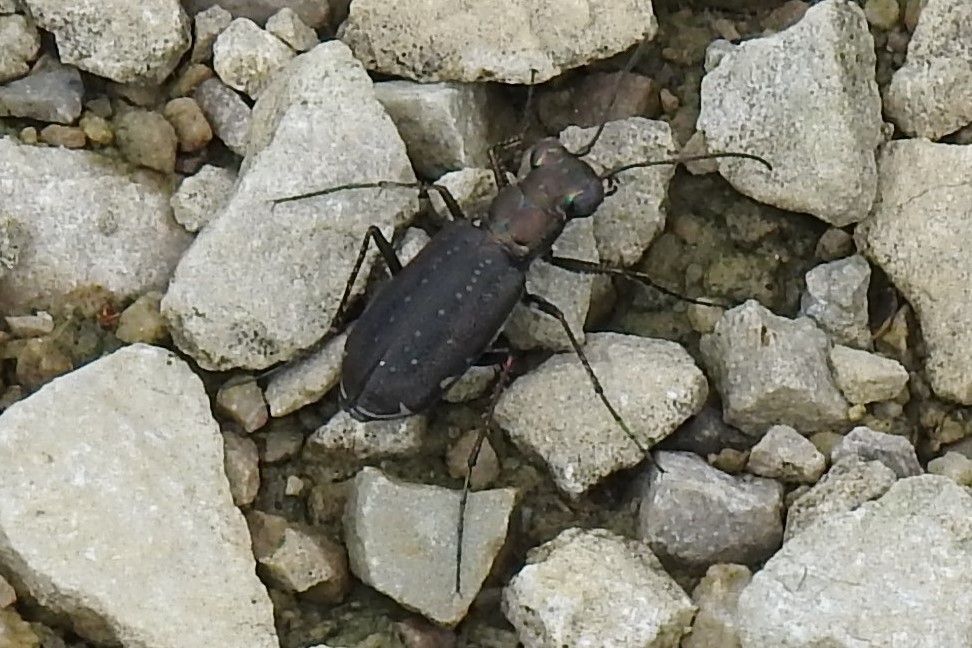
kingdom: Animalia
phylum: Arthropoda
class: Insecta
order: Coleoptera
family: Carabidae
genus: Cicindela
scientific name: Cicindela punctulata
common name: Punctured tiger beetle
